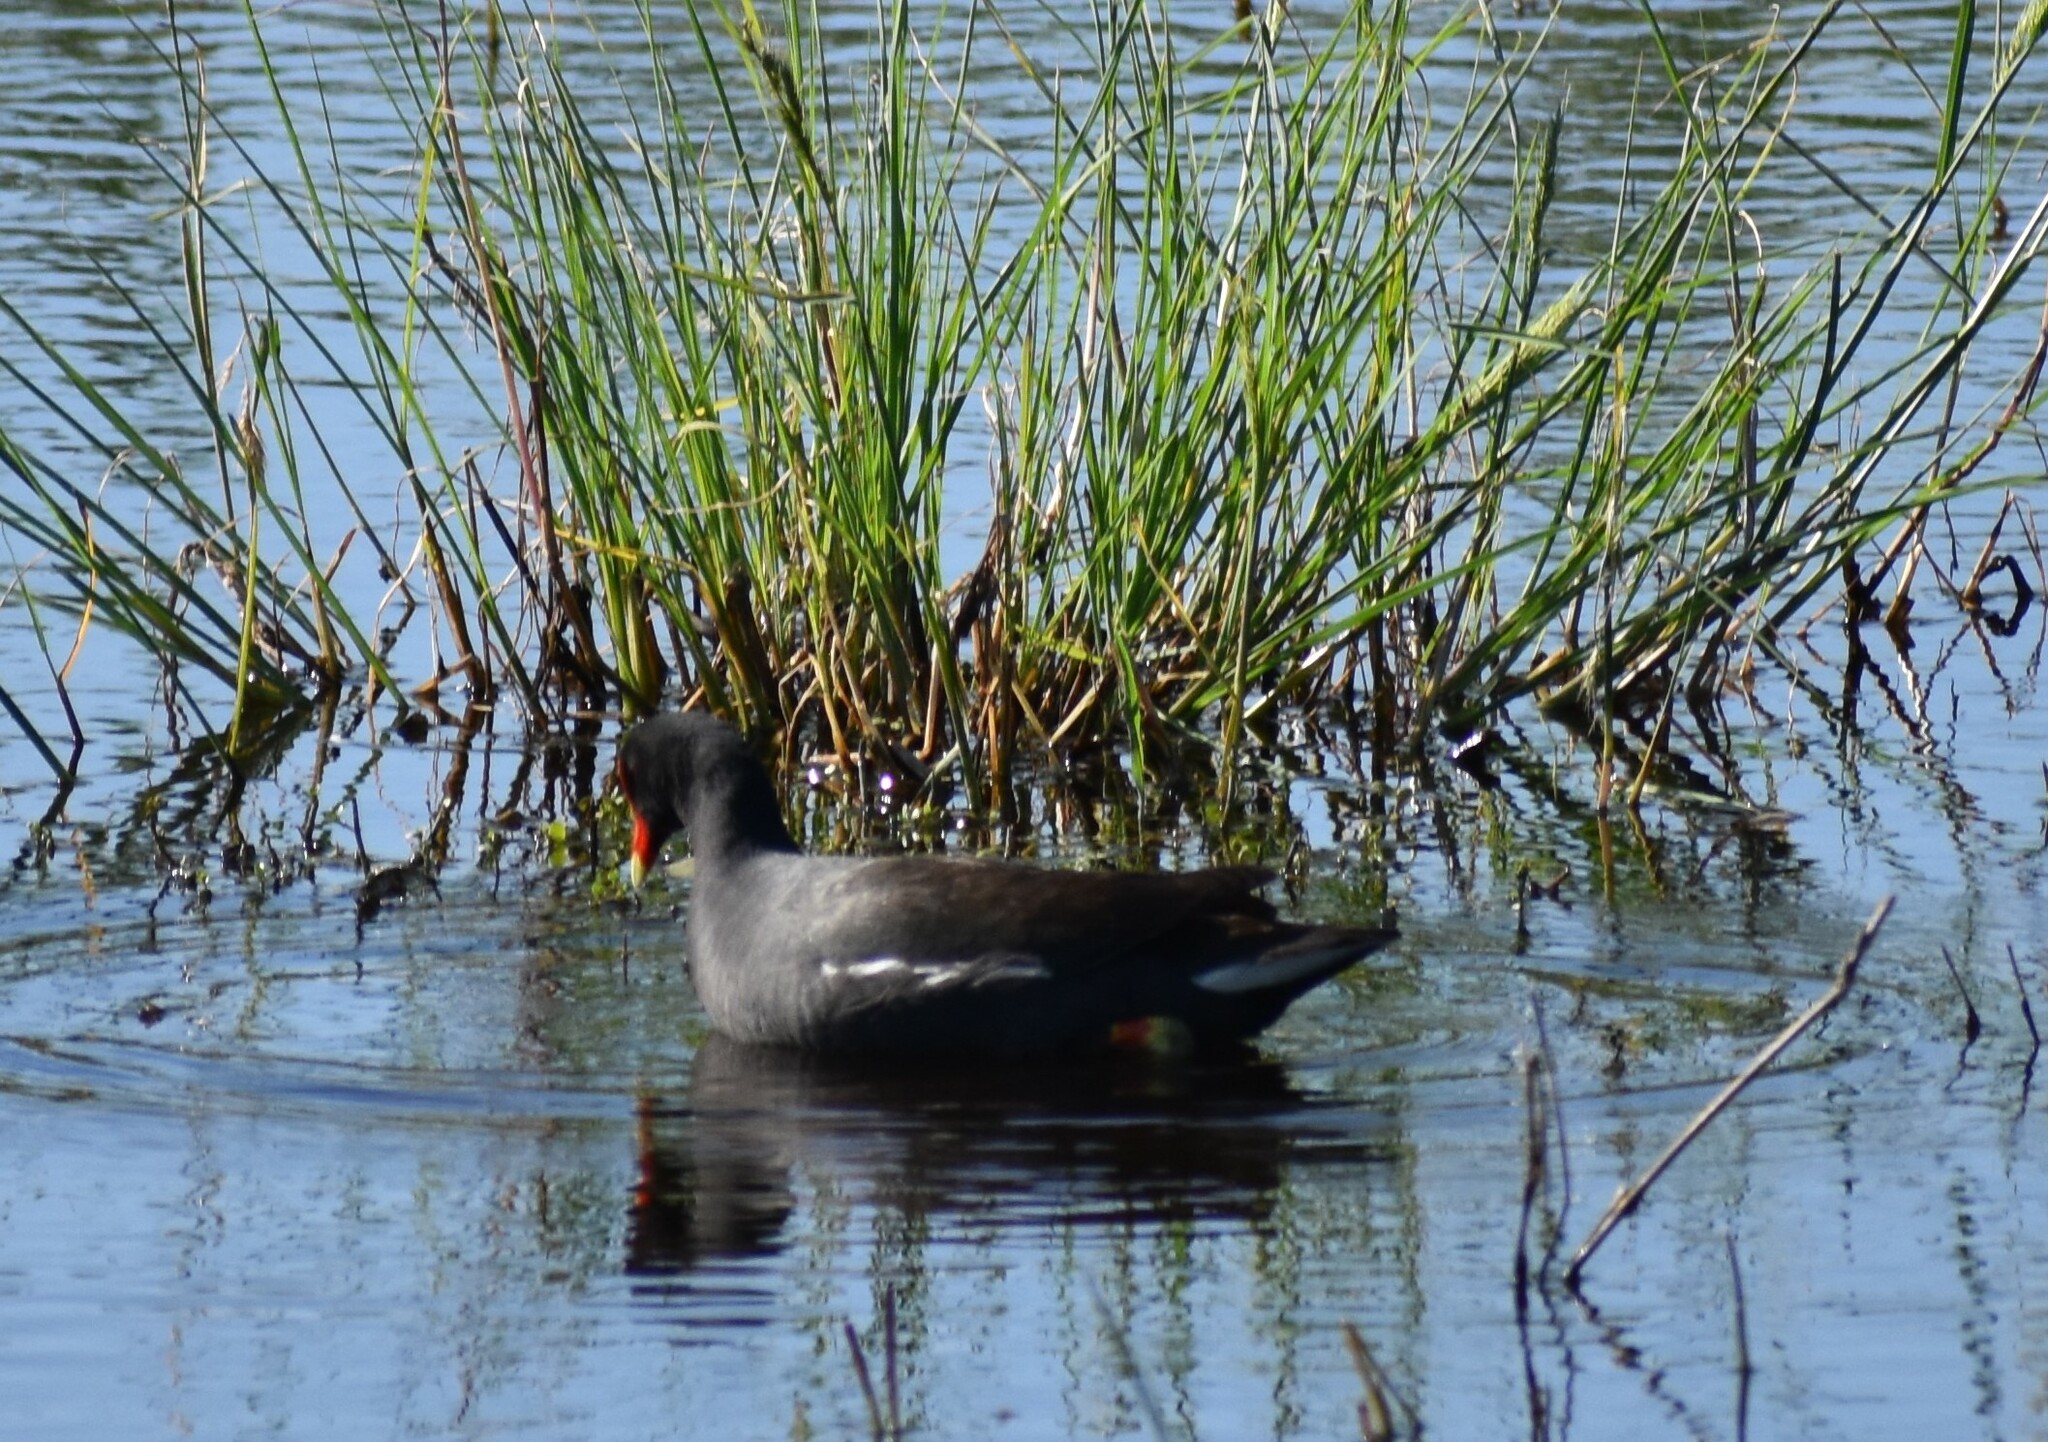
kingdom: Animalia
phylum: Chordata
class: Aves
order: Gruiformes
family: Rallidae
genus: Gallinula
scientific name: Gallinula chloropus
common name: Common moorhen
